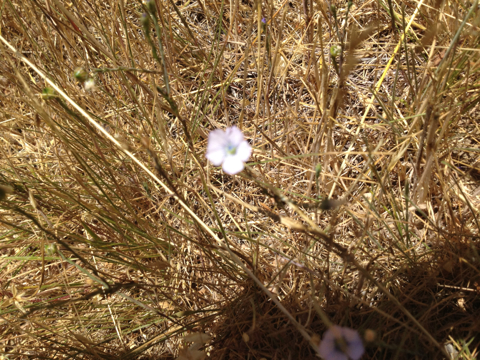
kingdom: Plantae
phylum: Tracheophyta
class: Magnoliopsida
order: Malpighiales
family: Linaceae
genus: Linum
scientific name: Linum bienne
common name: Pale flax
